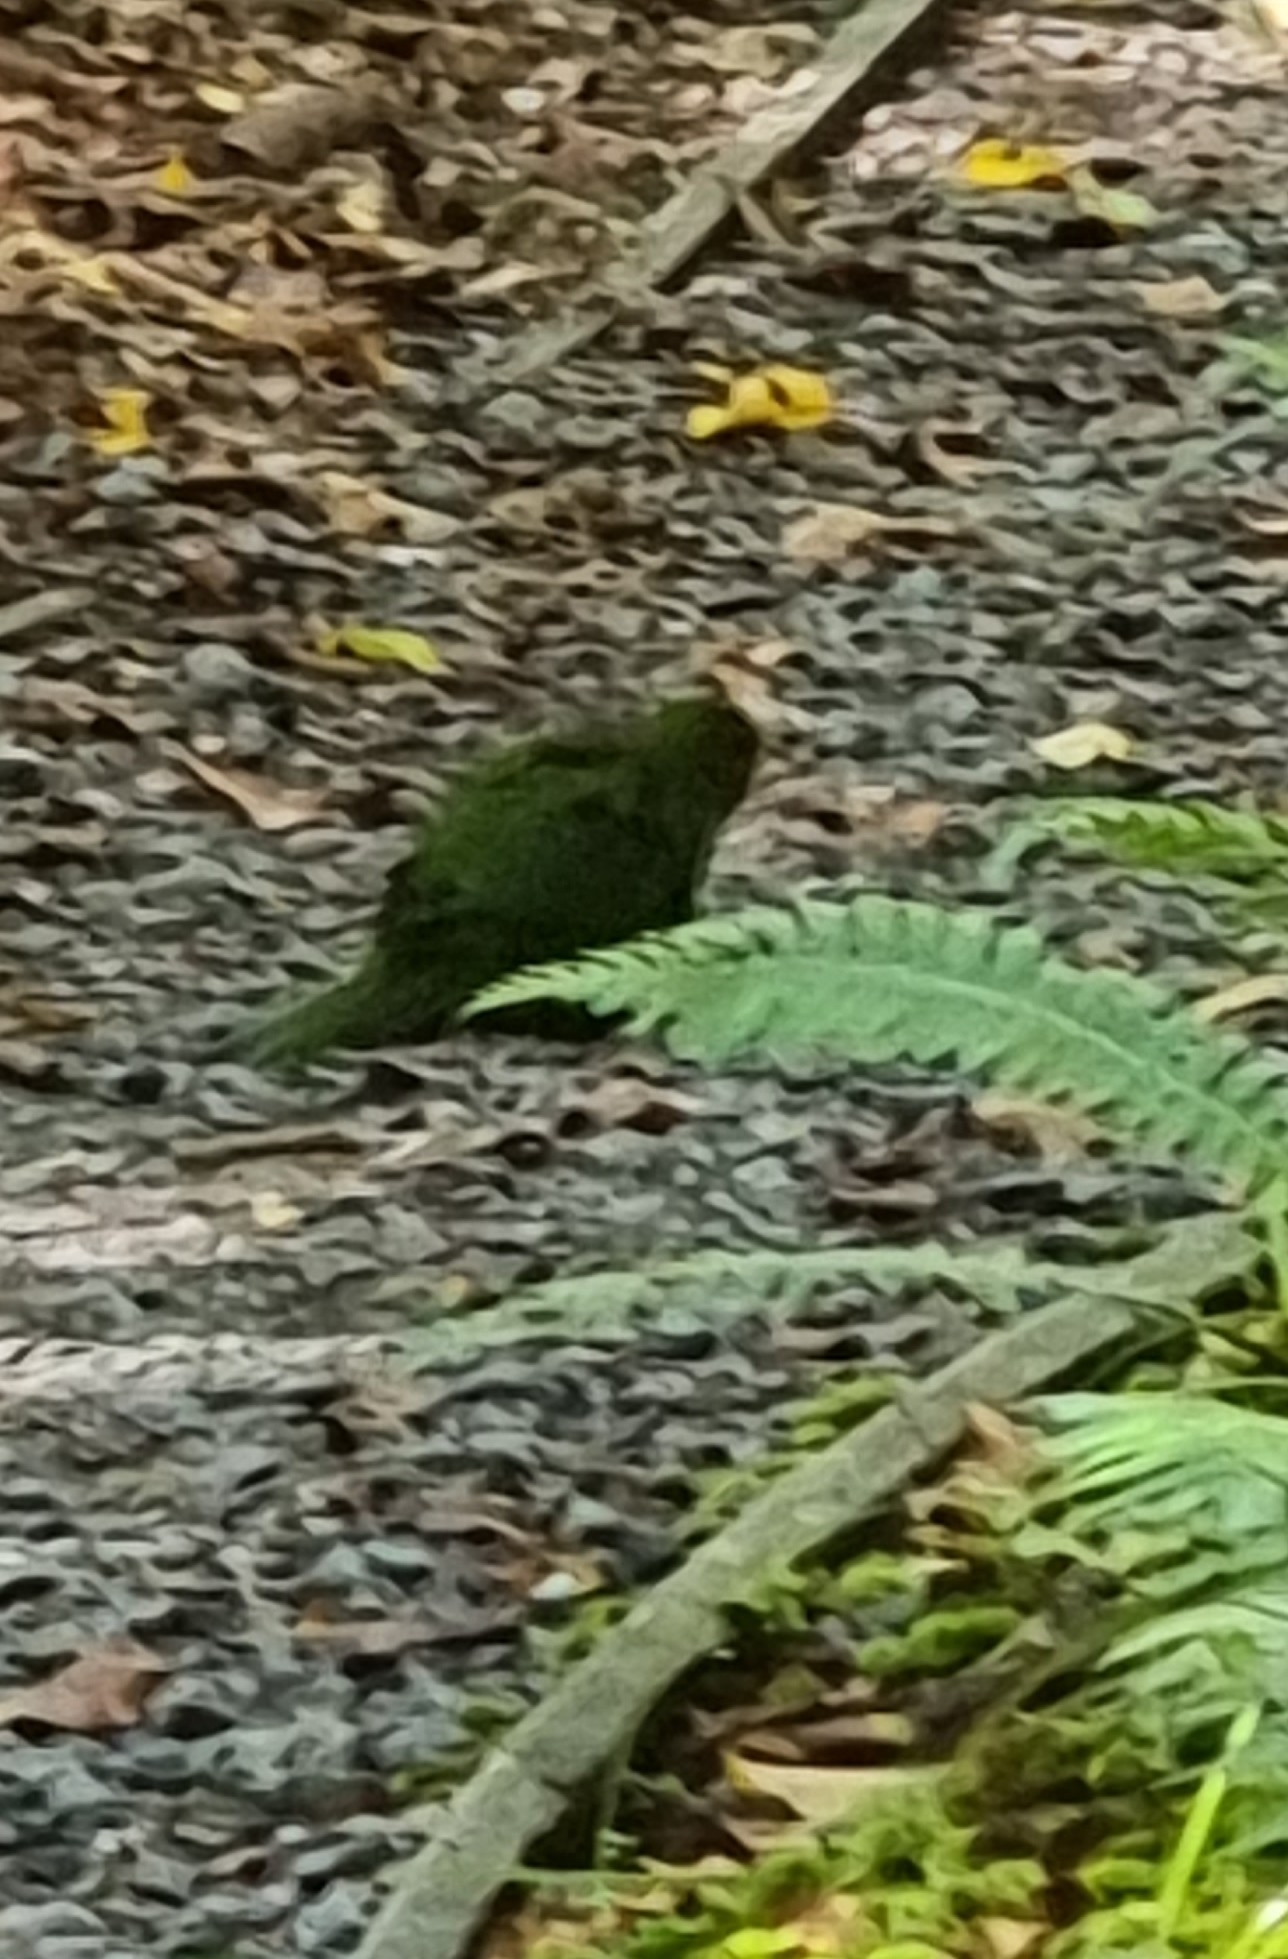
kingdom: Animalia
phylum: Chordata
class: Aves
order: Psittaciformes
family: Psittacidae
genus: Cyanoramphus
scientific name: Cyanoramphus novaezelandiae
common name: Red-fronted parakeet
